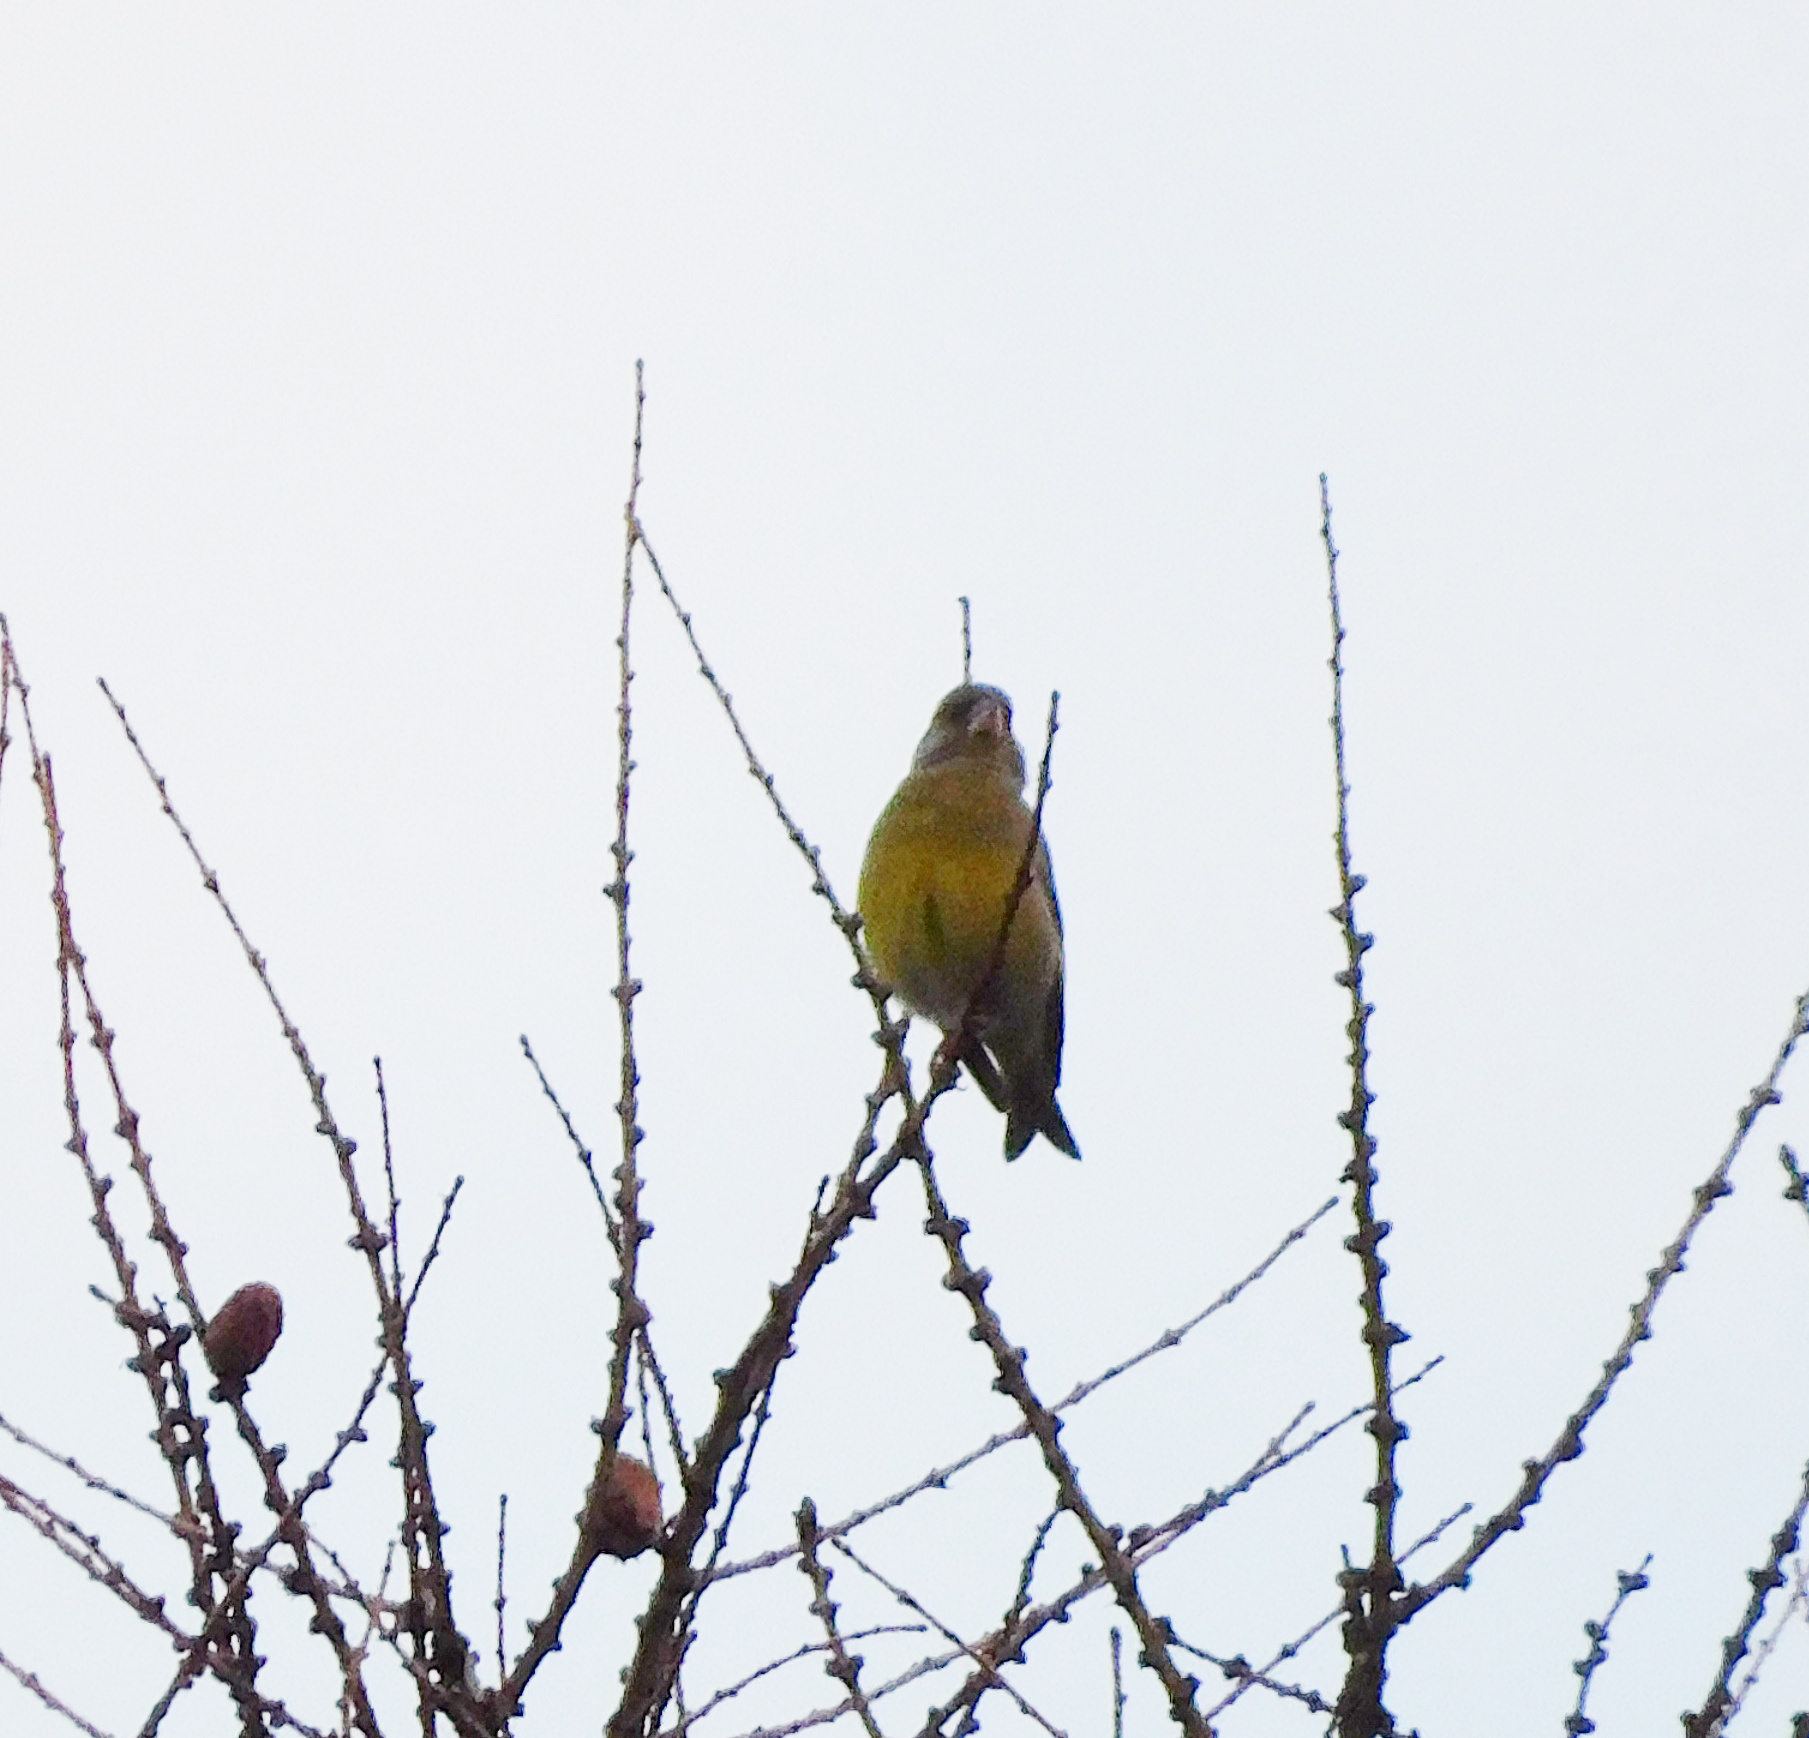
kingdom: Plantae
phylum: Tracheophyta
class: Liliopsida
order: Poales
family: Poaceae
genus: Chloris
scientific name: Chloris chloris
